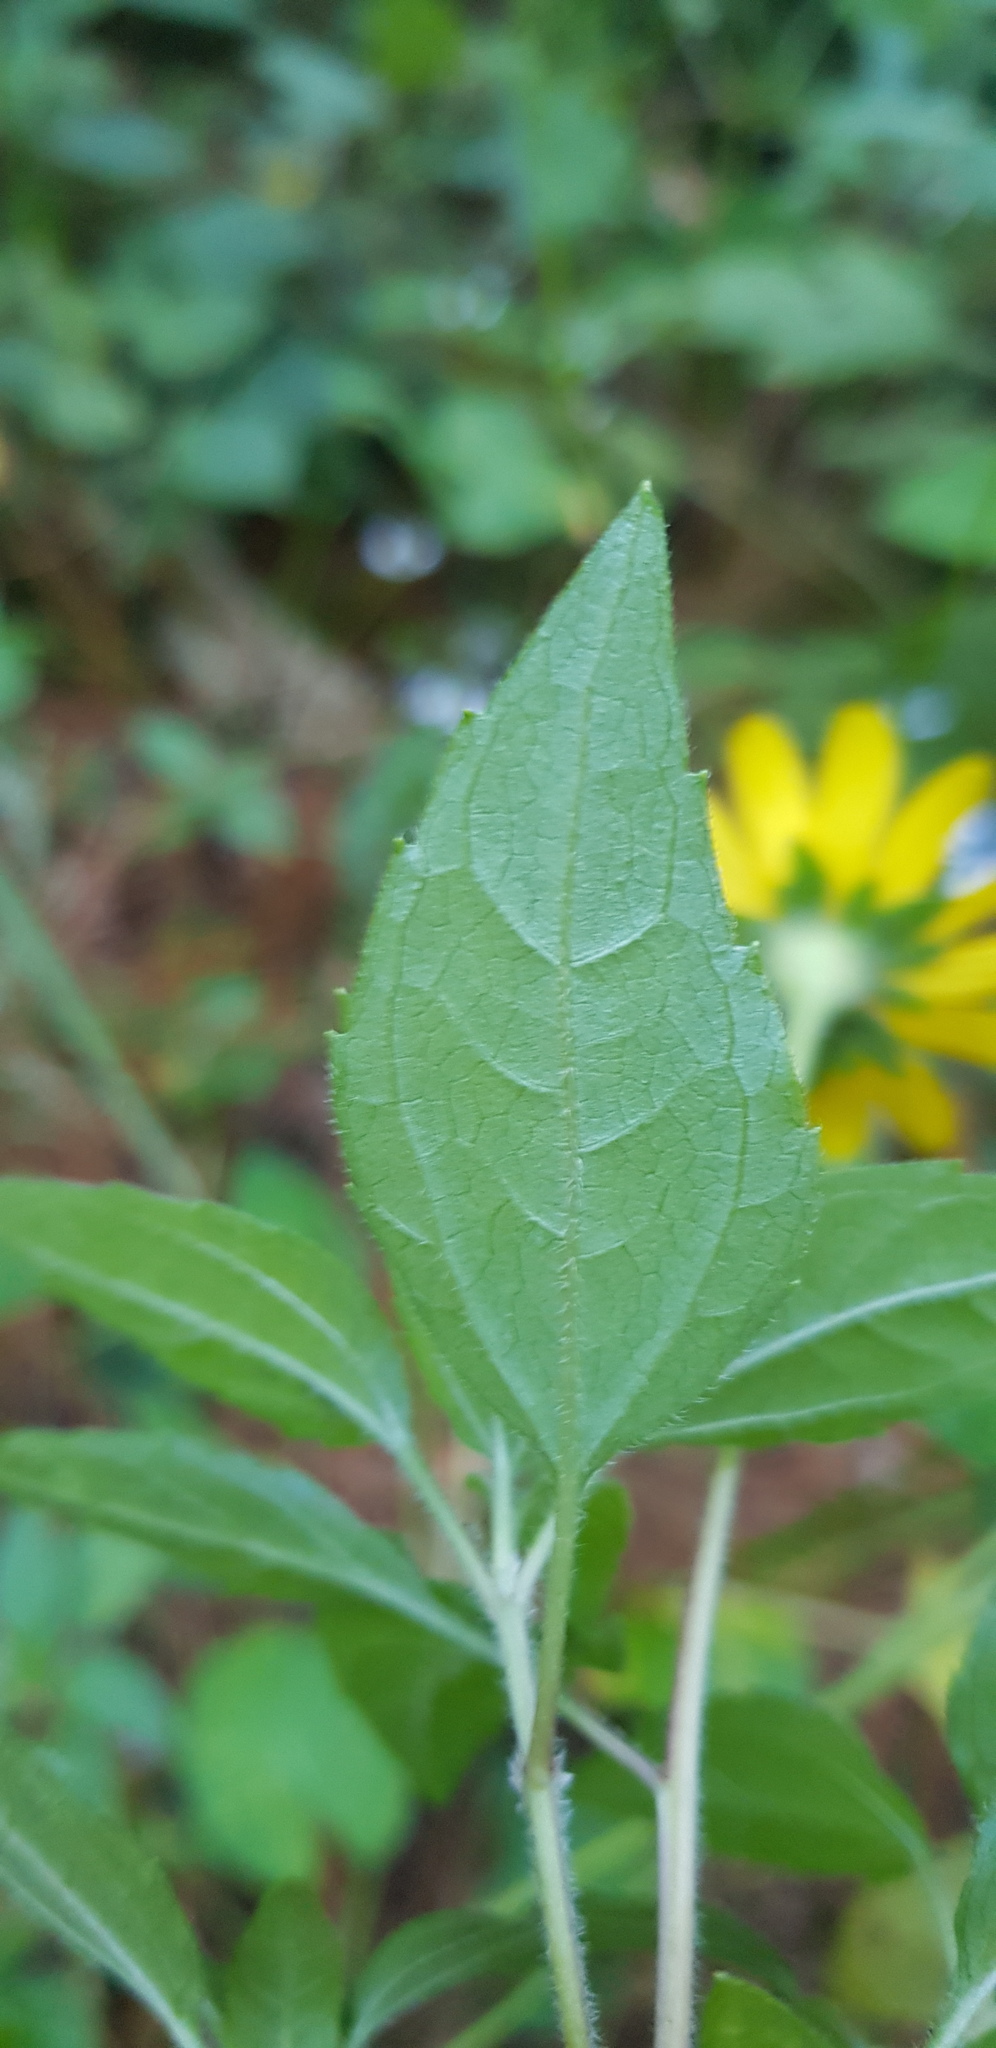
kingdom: Plantae
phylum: Tracheophyta
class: Magnoliopsida
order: Asterales
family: Asteraceae
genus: Heliopsis
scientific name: Heliopsis buphthalmoides
